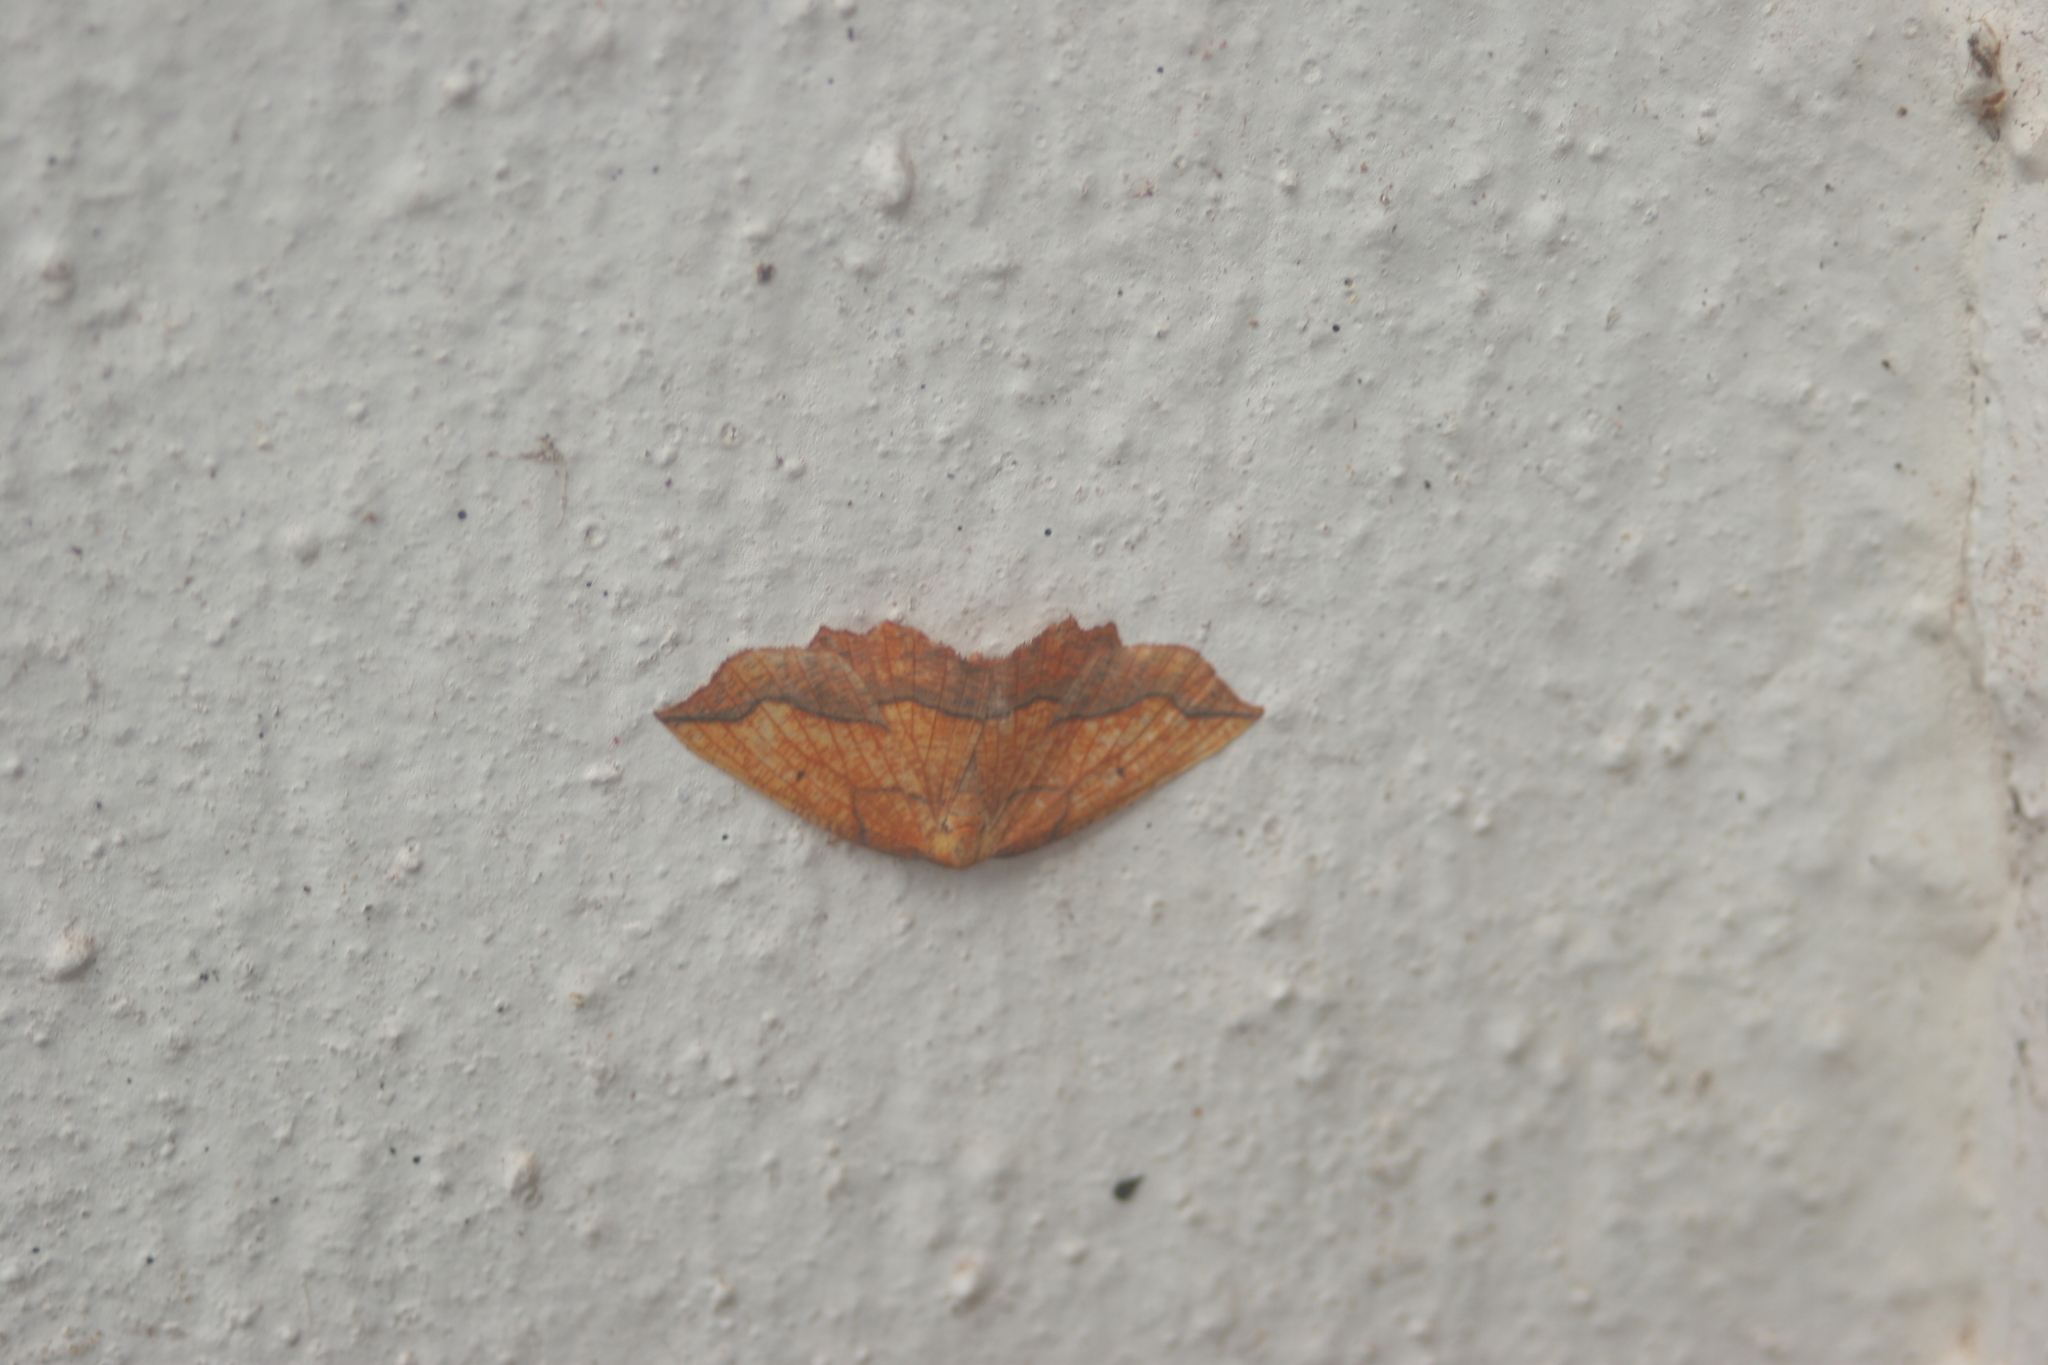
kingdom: Animalia
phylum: Arthropoda
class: Insecta
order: Lepidoptera
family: Geometridae
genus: Epione
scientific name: Epione repandaria
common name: Bordered beauty
